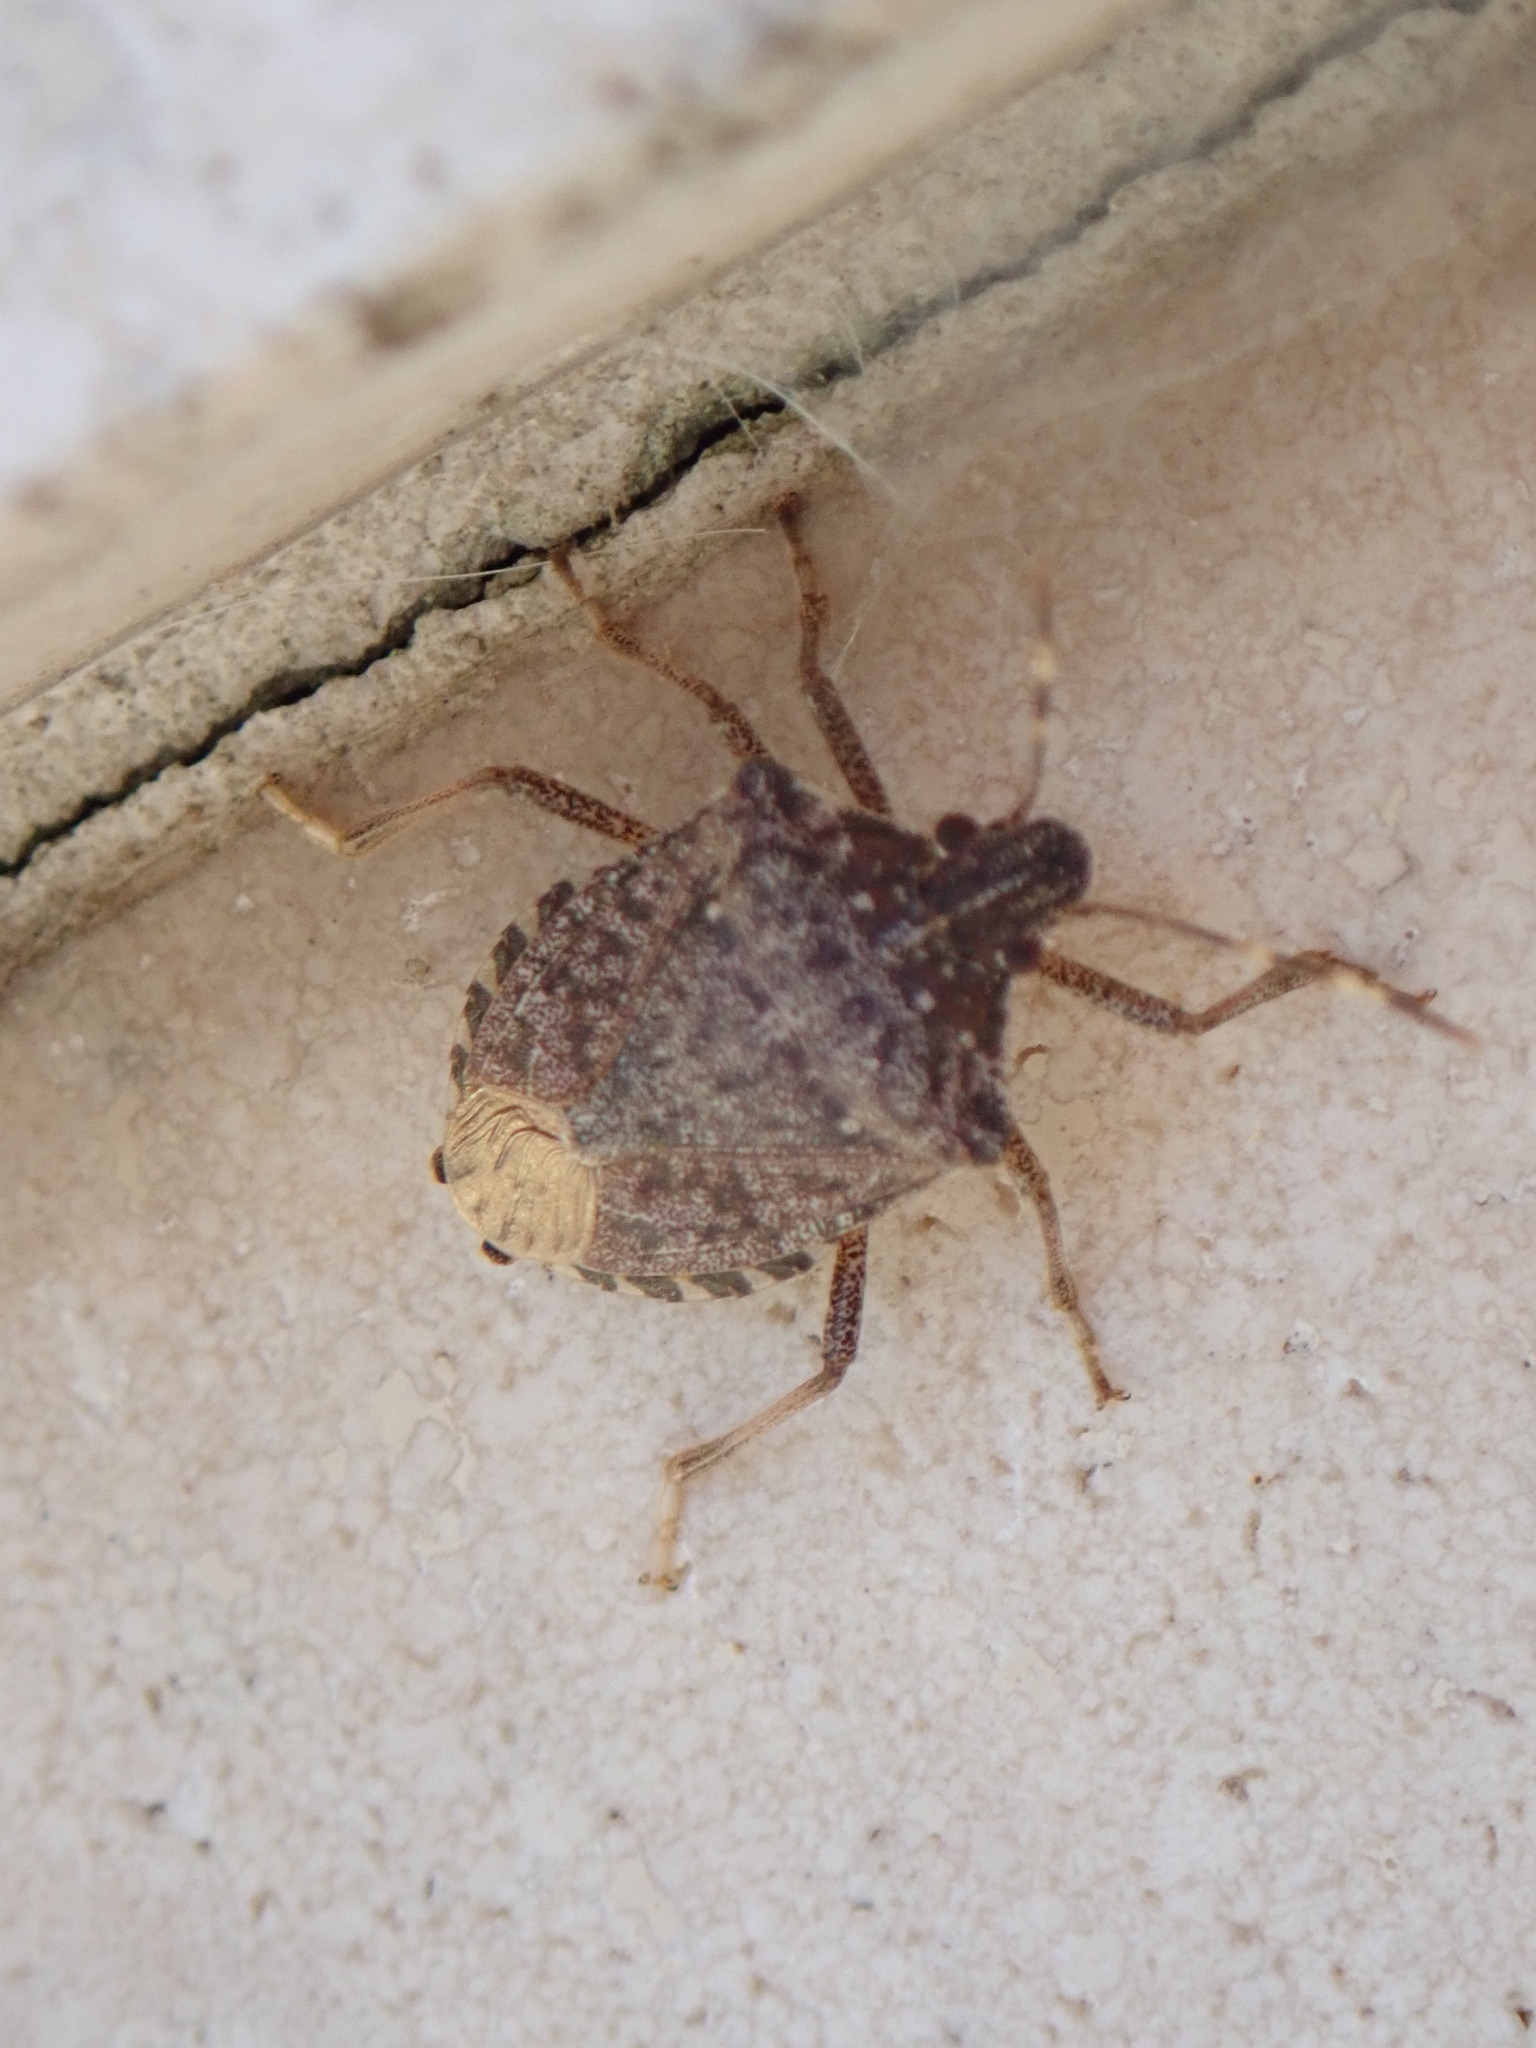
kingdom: Animalia
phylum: Arthropoda
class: Insecta
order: Hemiptera
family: Pentatomidae
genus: Halyomorpha
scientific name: Halyomorpha halys
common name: Brown marmorated stink bug
